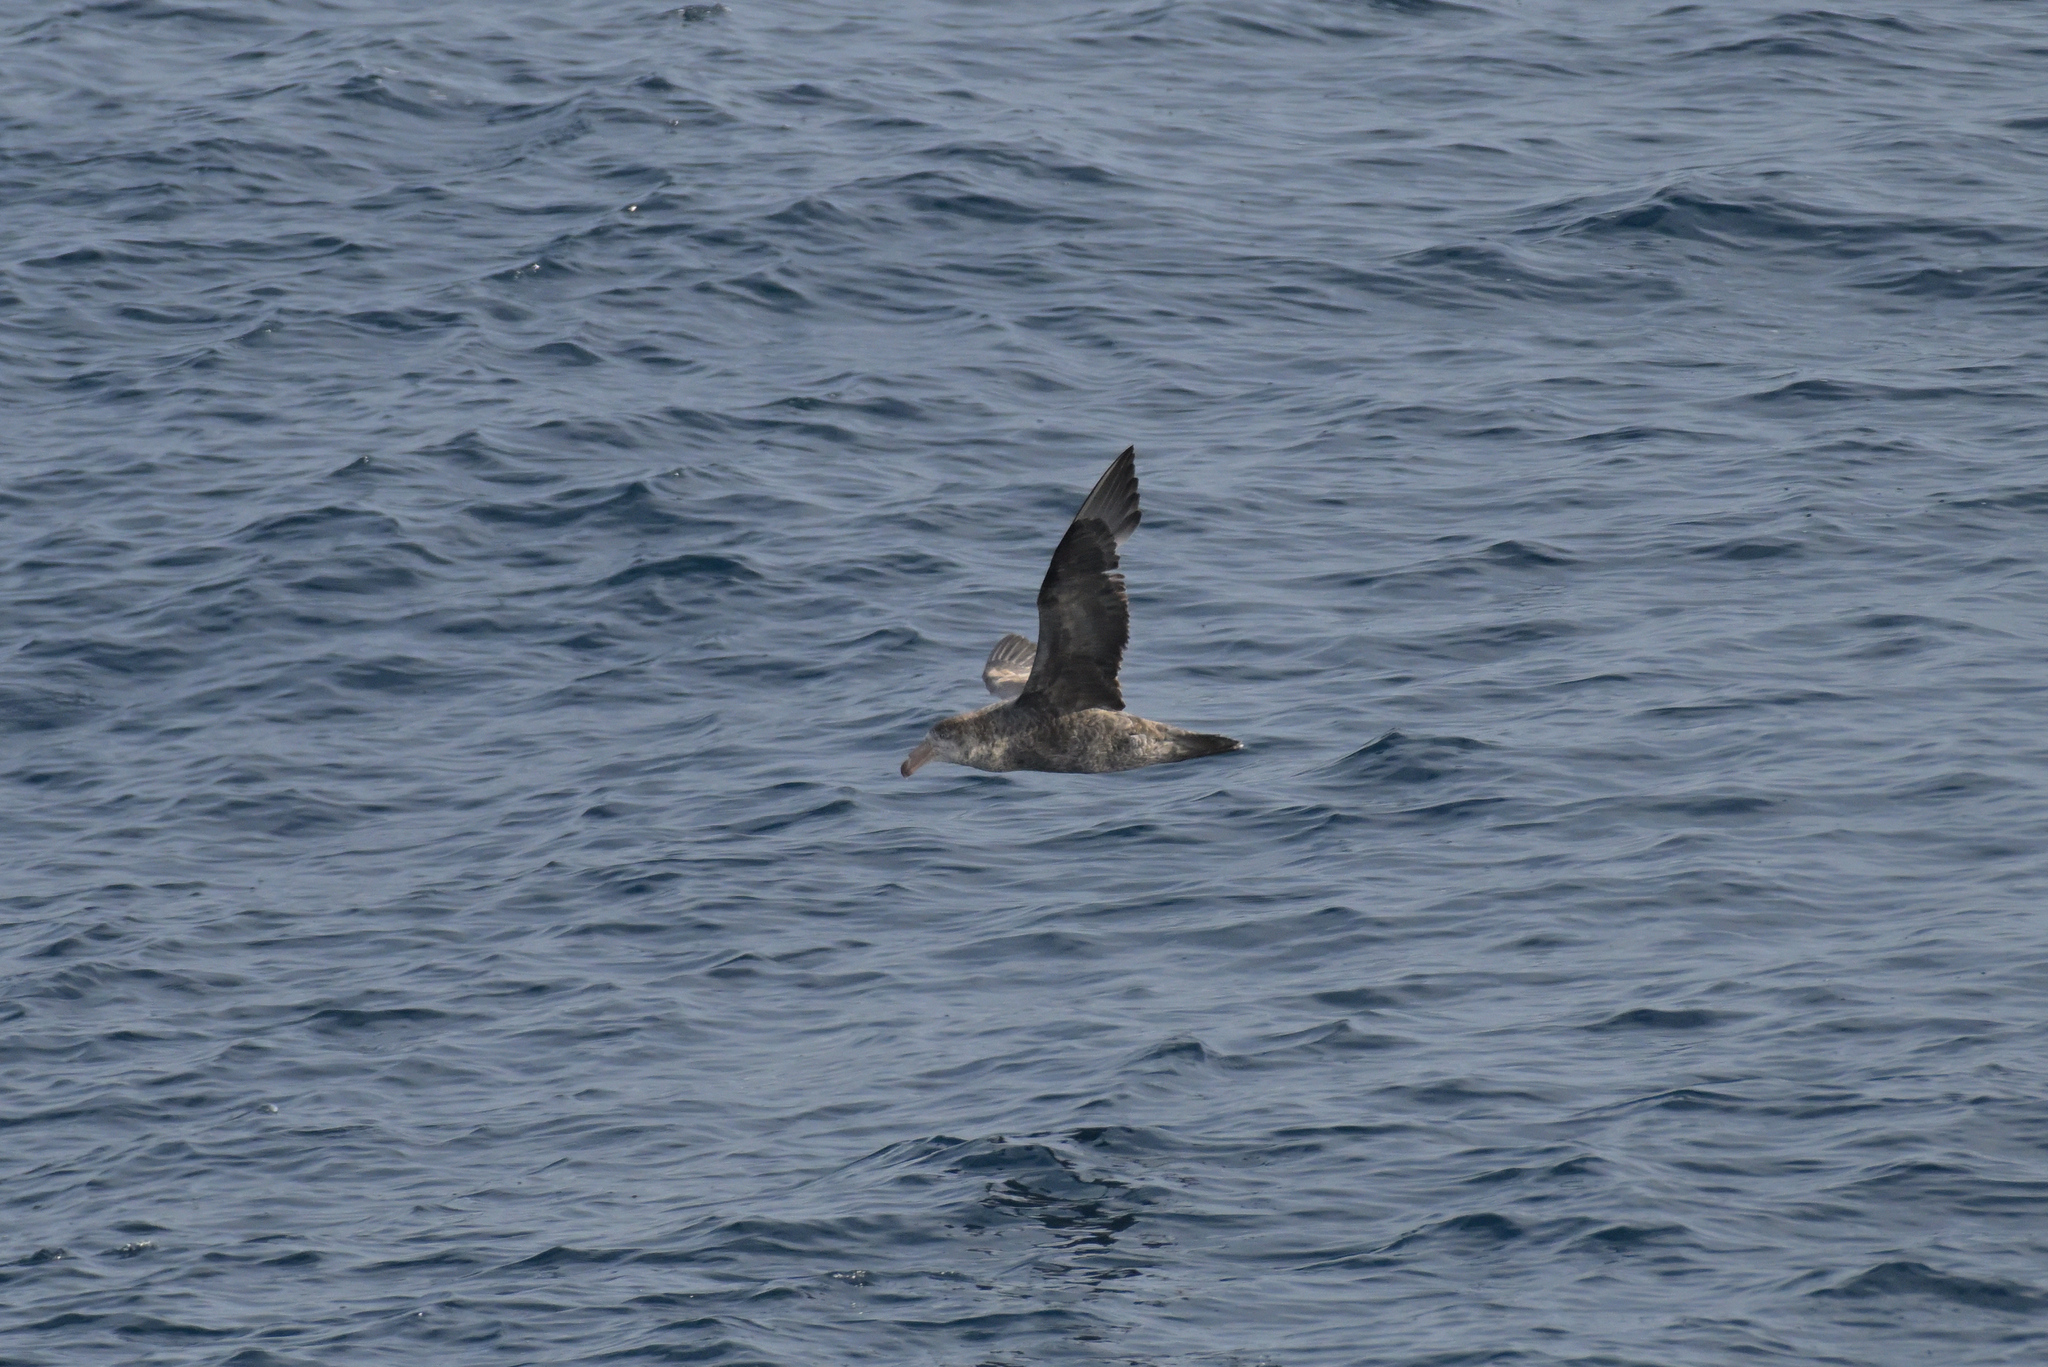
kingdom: Animalia
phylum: Chordata
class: Aves
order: Procellariiformes
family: Procellariidae
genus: Macronectes
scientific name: Macronectes halli
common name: Northern giant petrel
